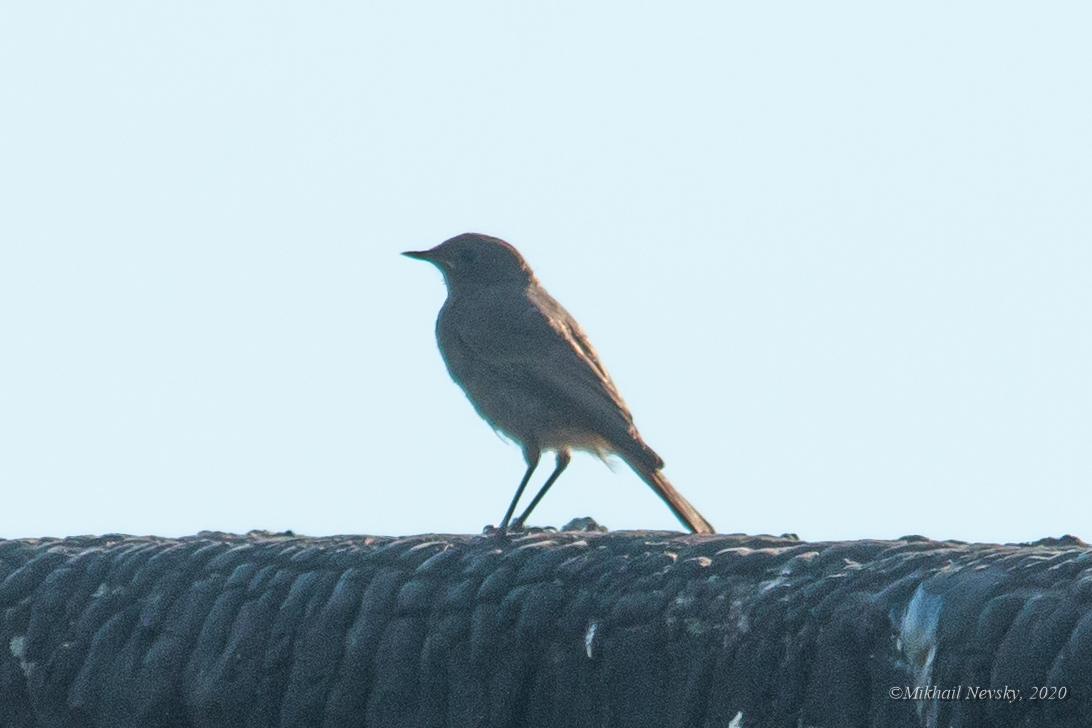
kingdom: Animalia
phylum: Chordata
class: Aves
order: Passeriformes
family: Muscicapidae
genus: Phoenicurus
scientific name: Phoenicurus ochruros
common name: Black redstart
